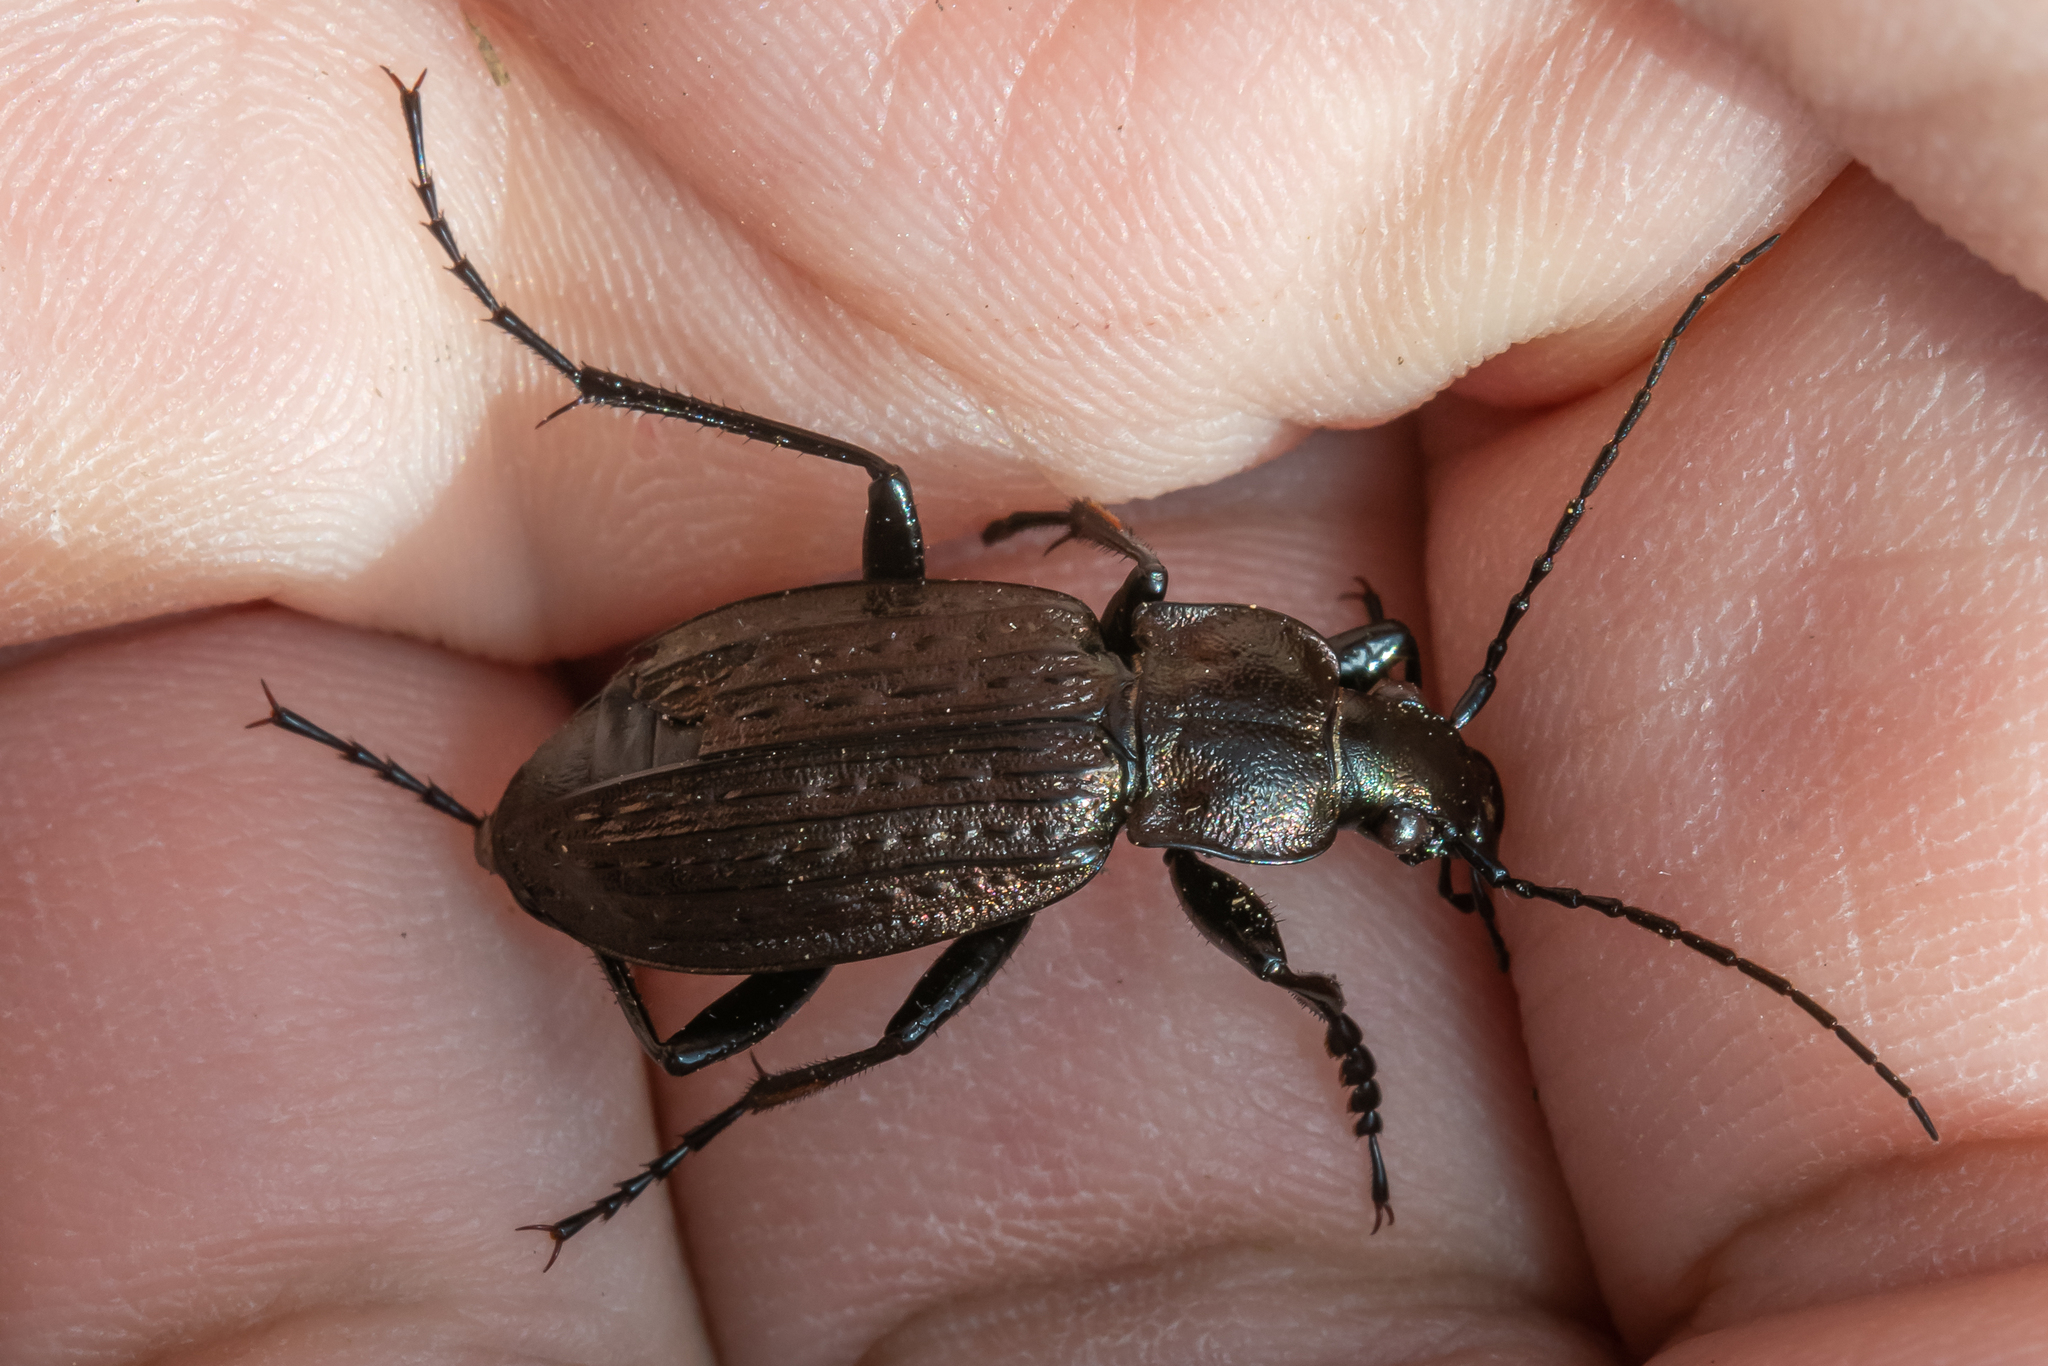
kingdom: Animalia
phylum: Arthropoda
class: Insecta
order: Coleoptera
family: Carabidae
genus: Carabus
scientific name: Carabus granulatus
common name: Granulate ground beetle
